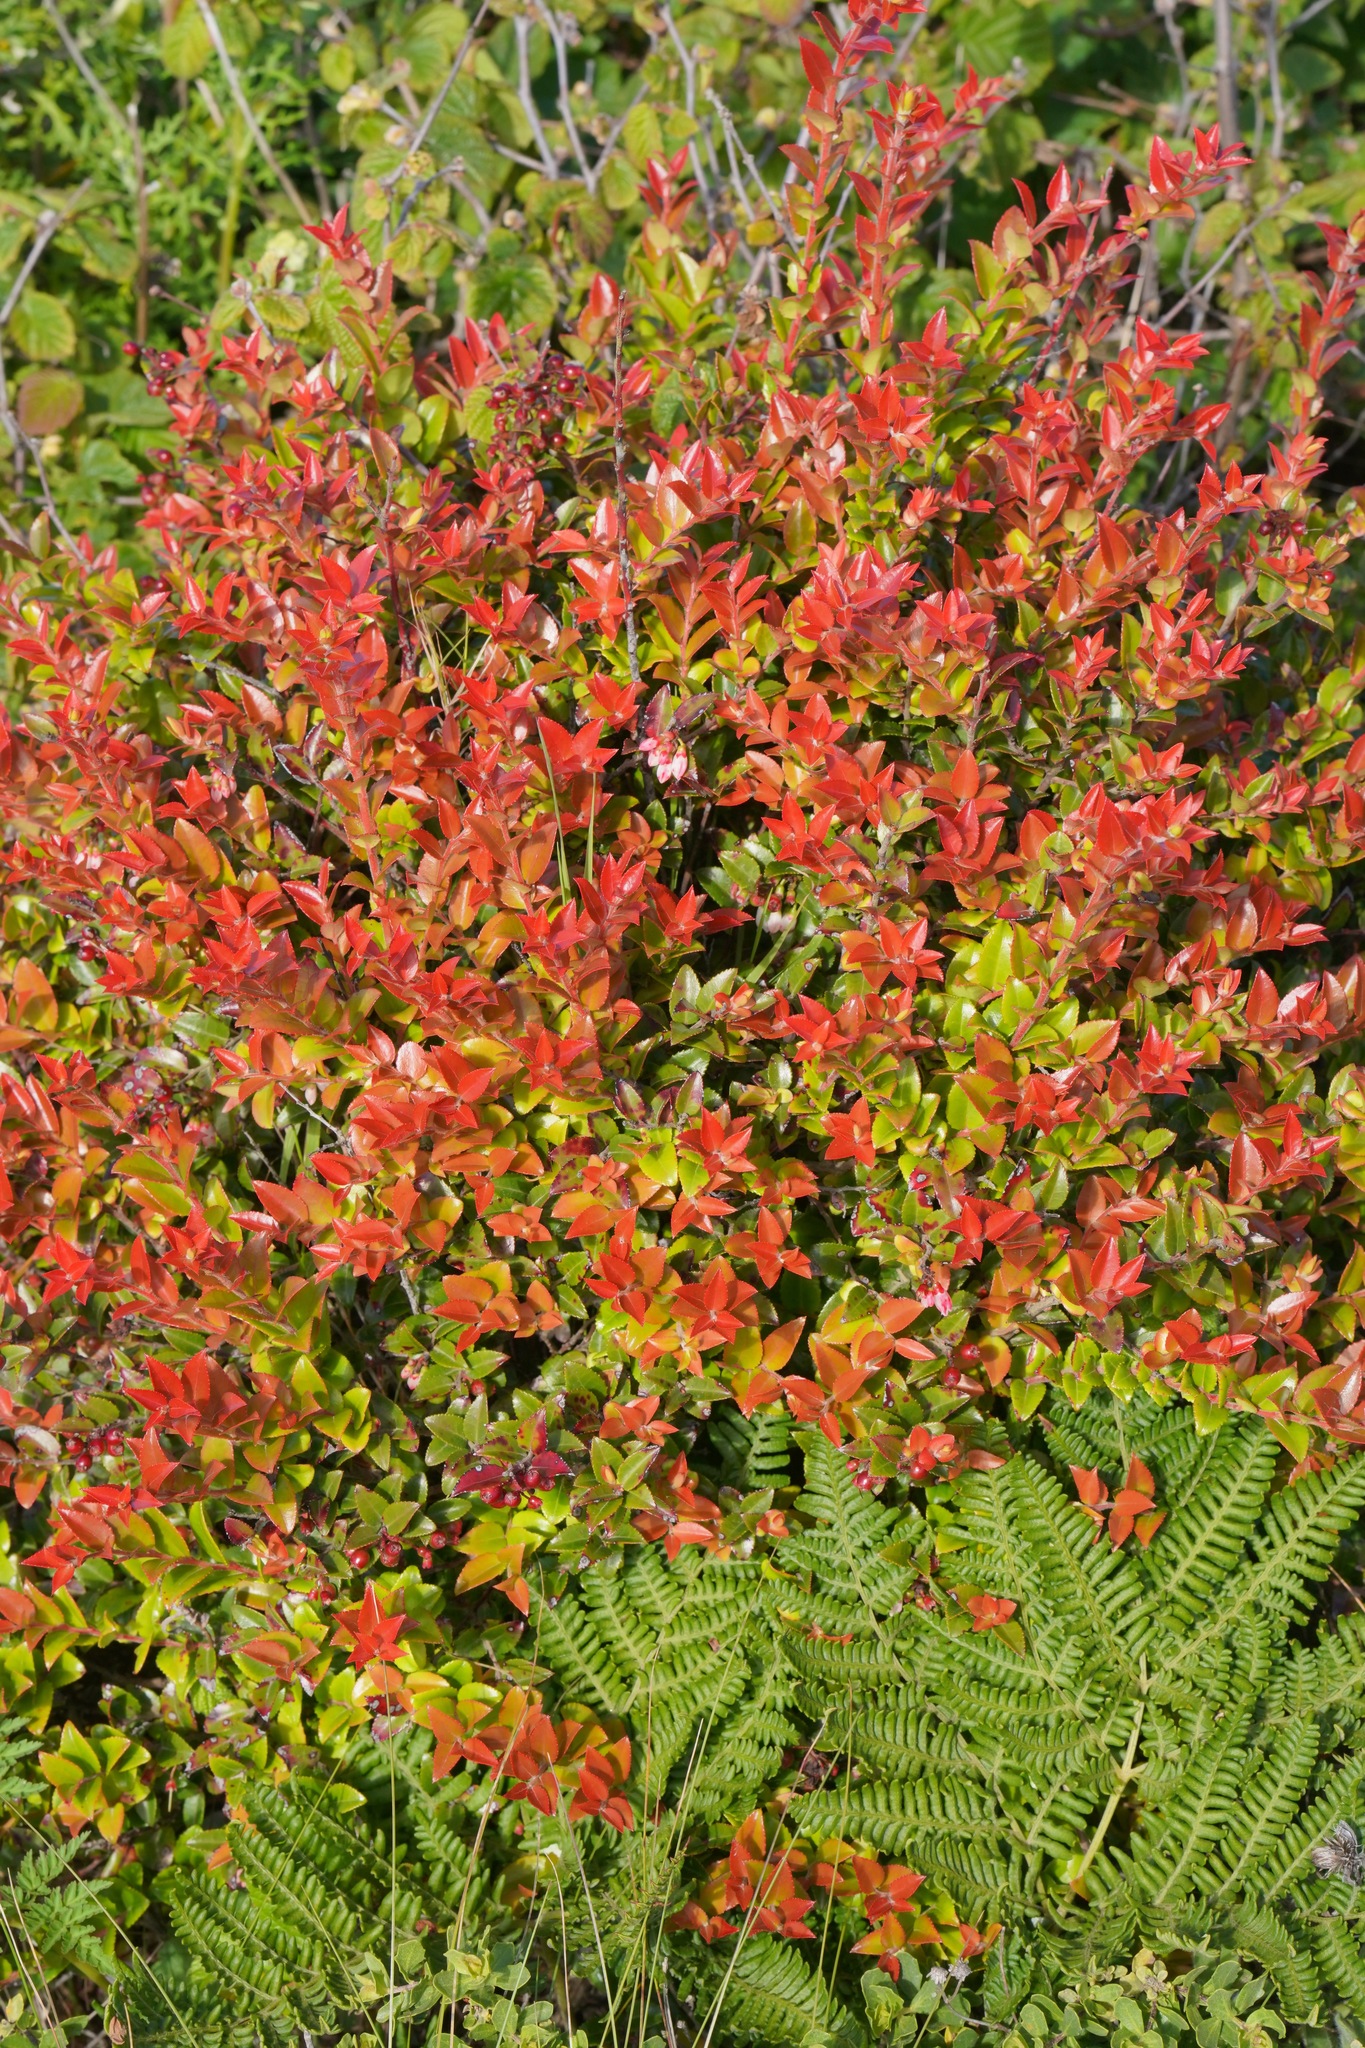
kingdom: Plantae
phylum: Tracheophyta
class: Magnoliopsida
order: Ericales
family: Ericaceae
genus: Vaccinium
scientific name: Vaccinium ovatum
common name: California-huckleberry
